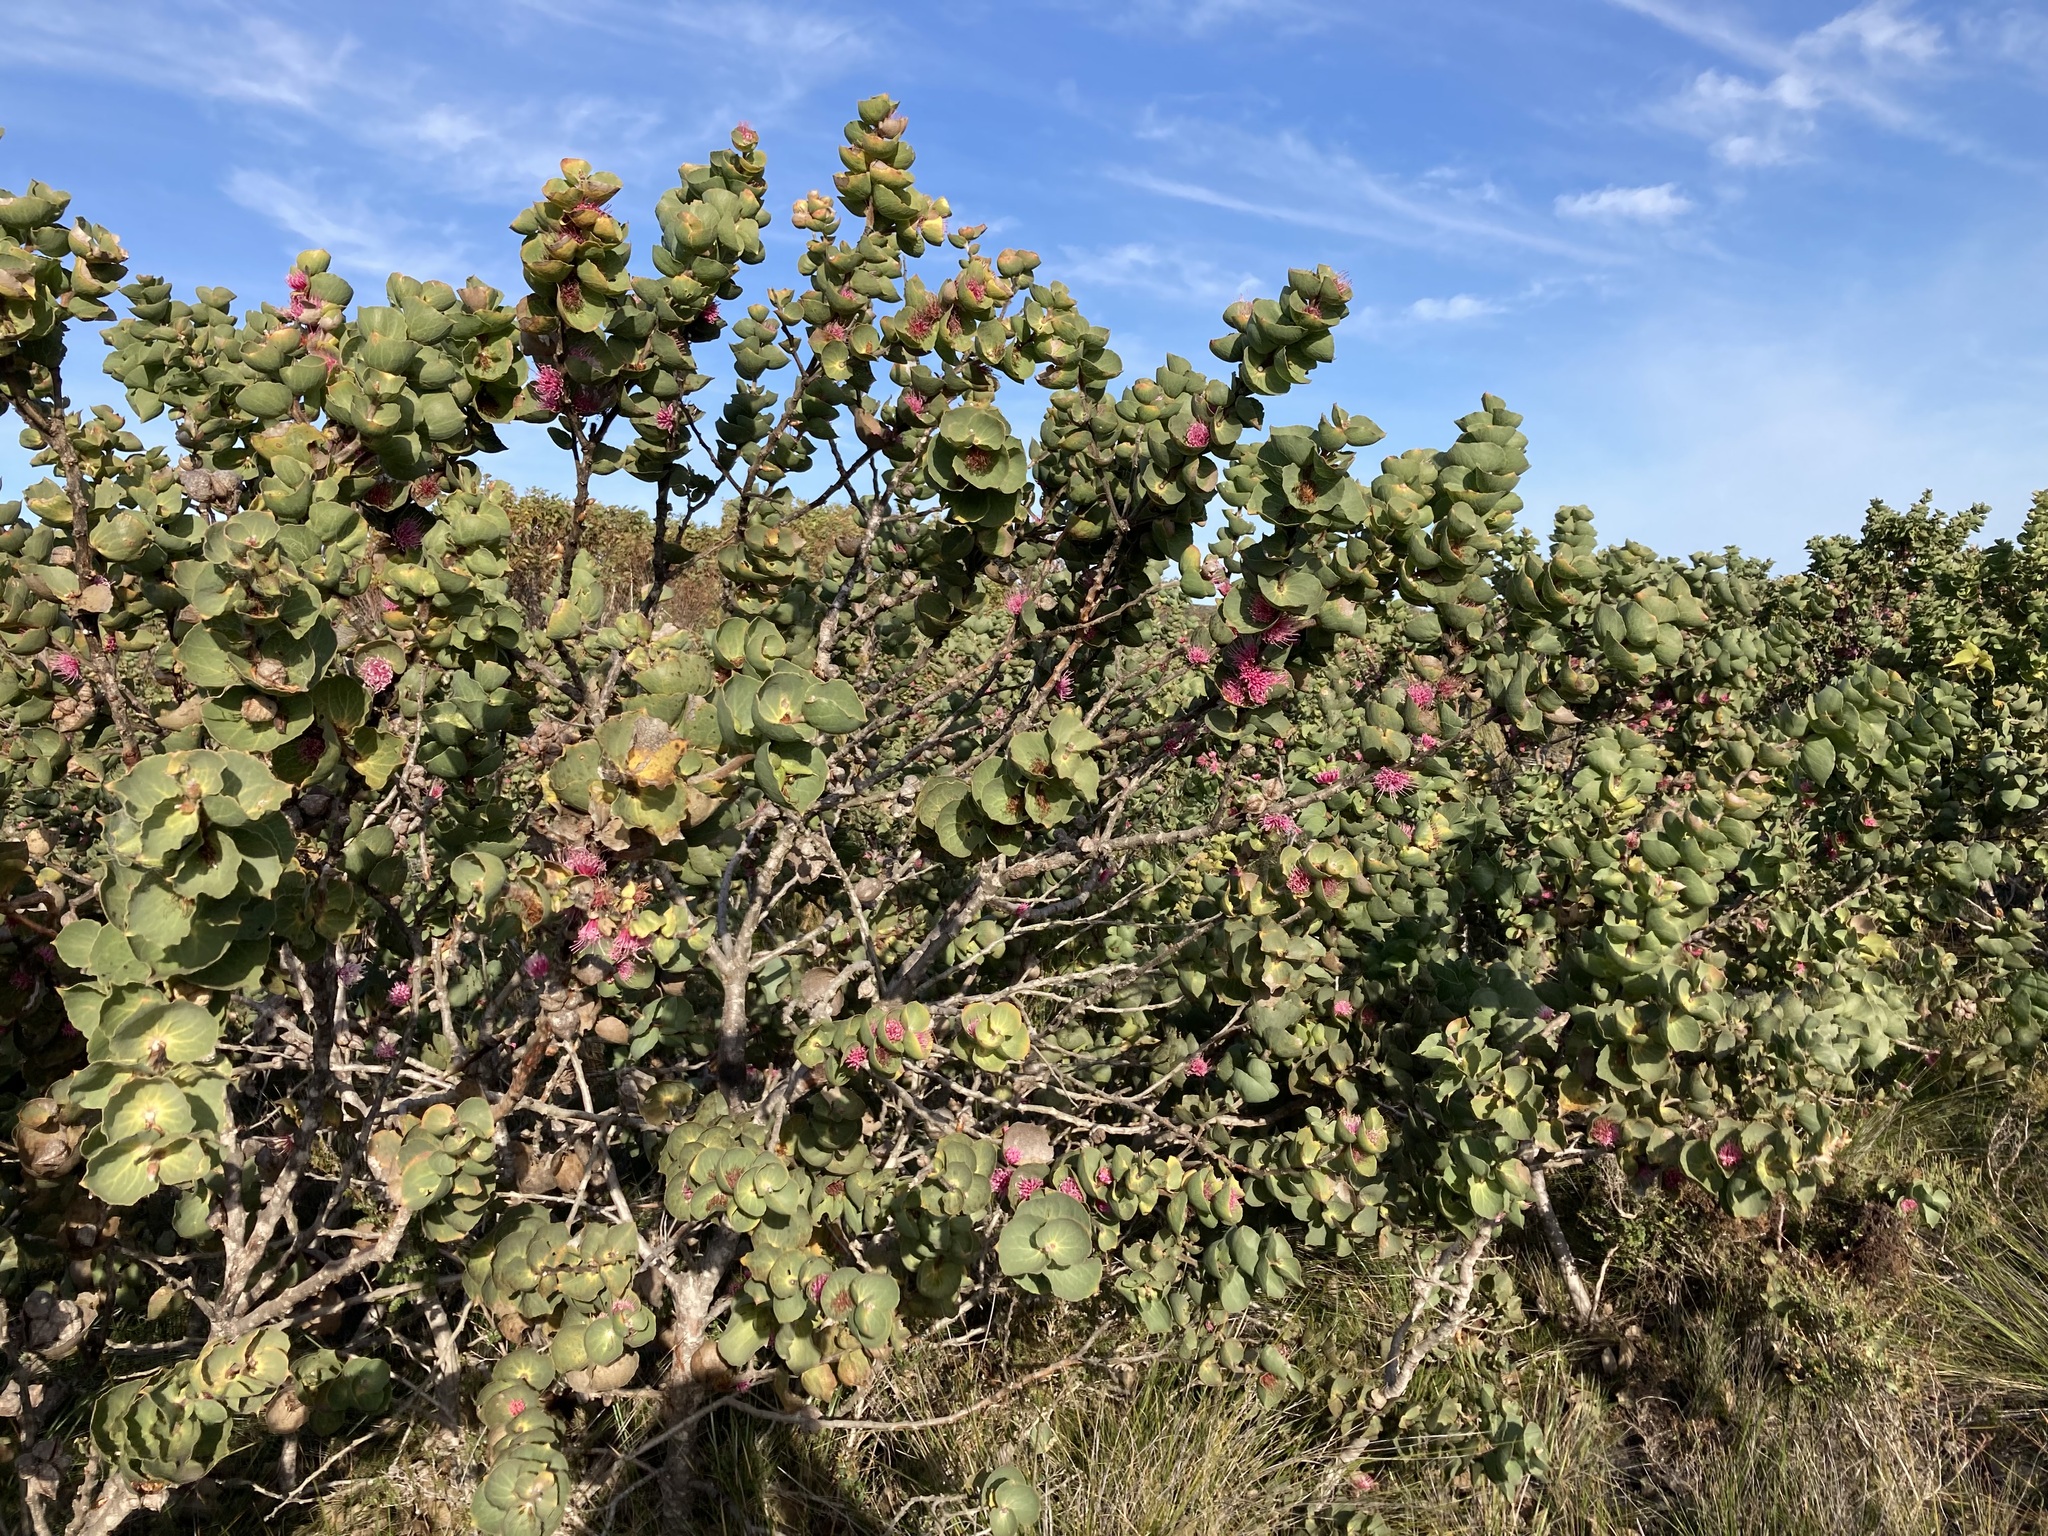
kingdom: Plantae
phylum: Tracheophyta
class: Magnoliopsida
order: Proteales
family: Proteaceae
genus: Hakea
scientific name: Hakea cucullata
